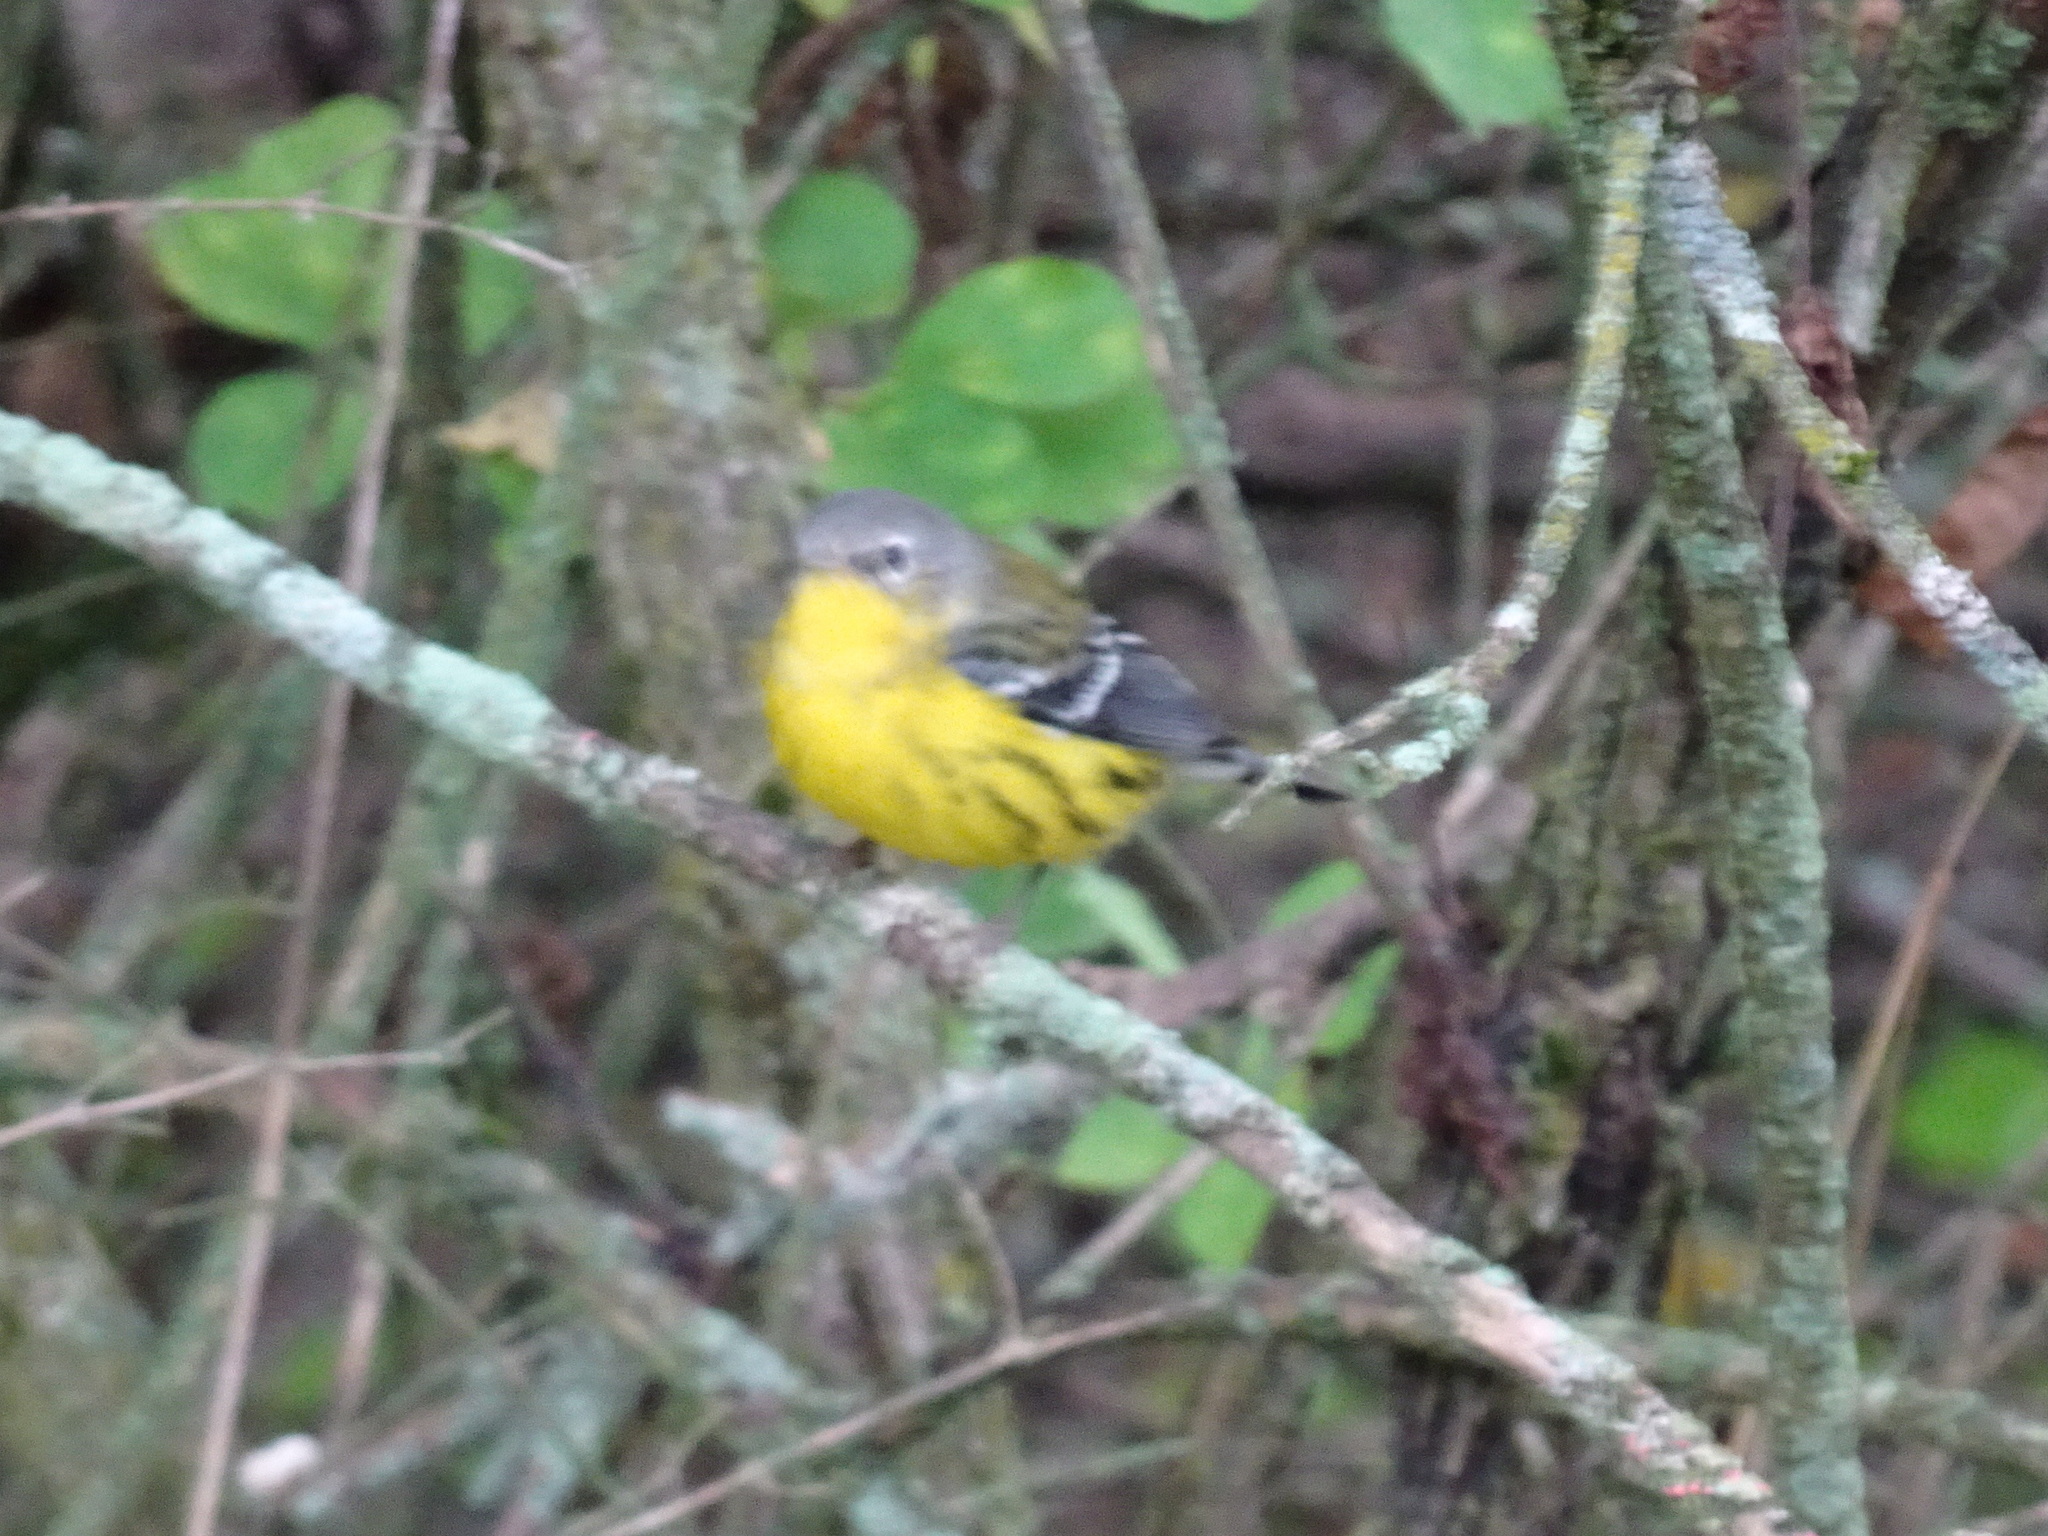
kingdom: Animalia
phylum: Chordata
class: Aves
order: Passeriformes
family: Parulidae
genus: Setophaga
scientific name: Setophaga magnolia
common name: Magnolia warbler
